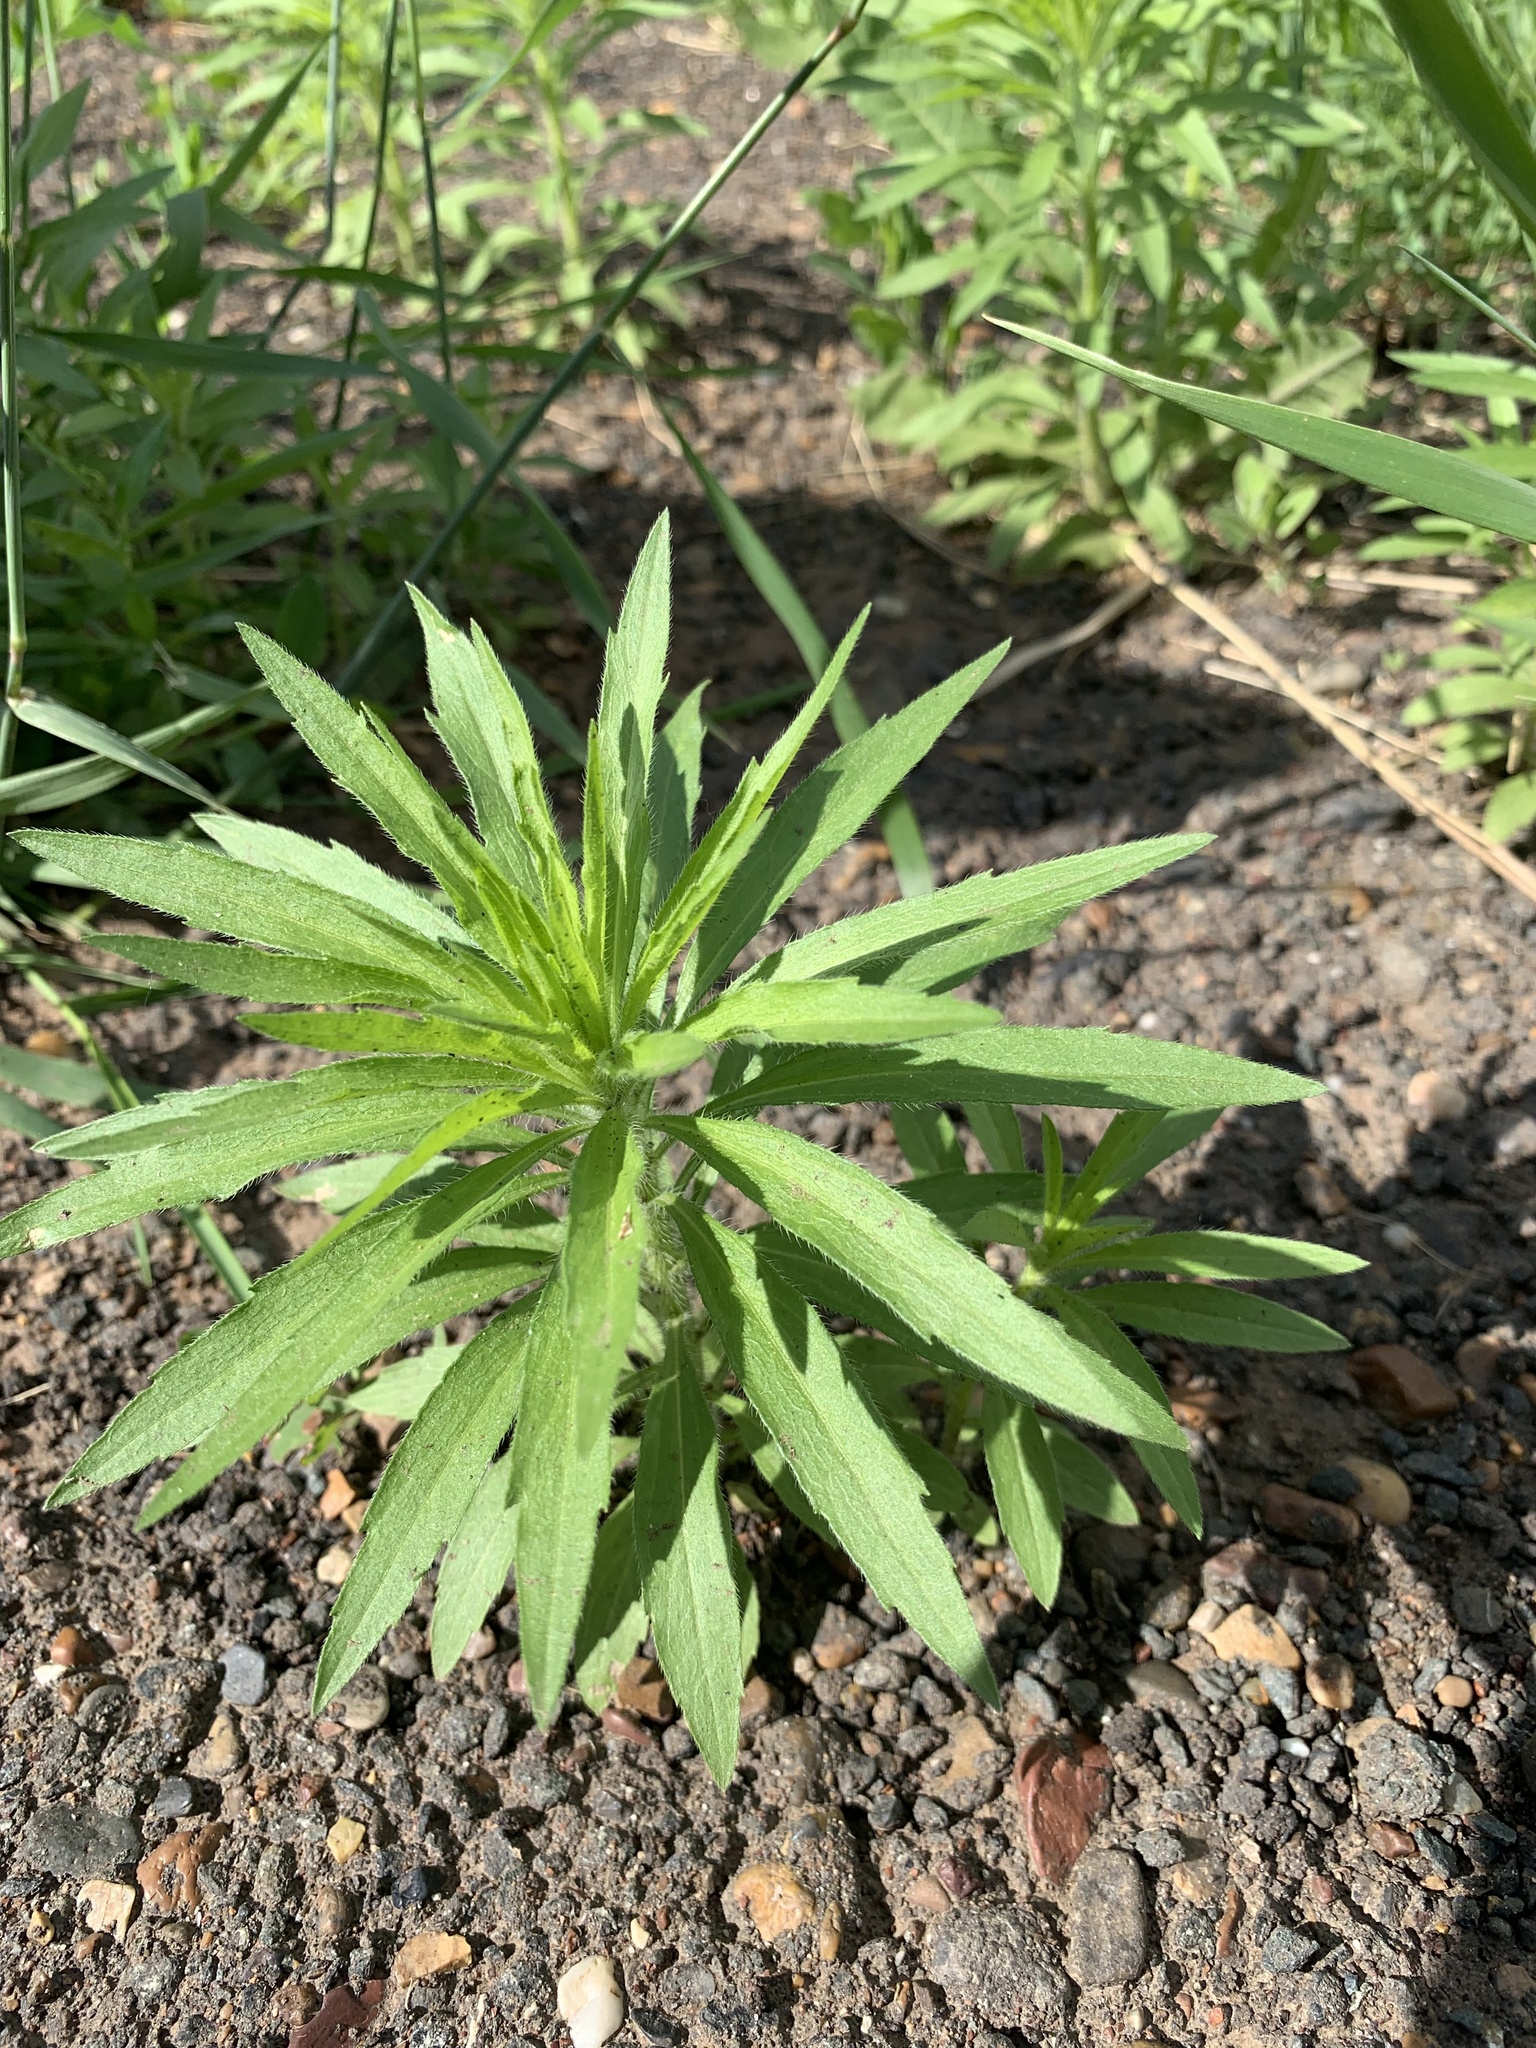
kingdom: Plantae
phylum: Tracheophyta
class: Magnoliopsida
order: Asterales
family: Asteraceae
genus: Erigeron
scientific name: Erigeron canadensis
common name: Canadian fleabane
